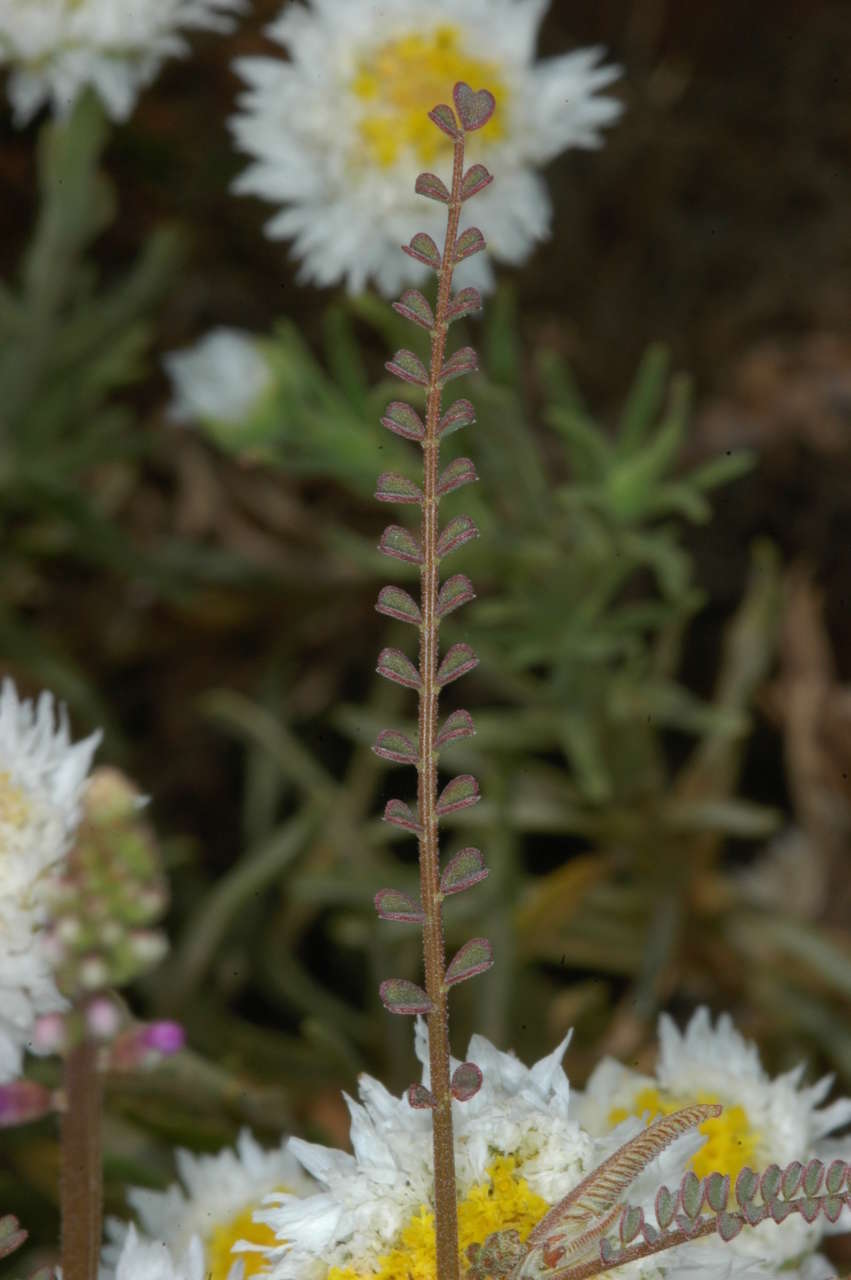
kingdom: Plantae
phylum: Tracheophyta
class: Magnoliopsida
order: Fabales
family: Fabaceae
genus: Swainsona
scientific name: Swainsona microphylla
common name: Small-leaf swainsona-pea
